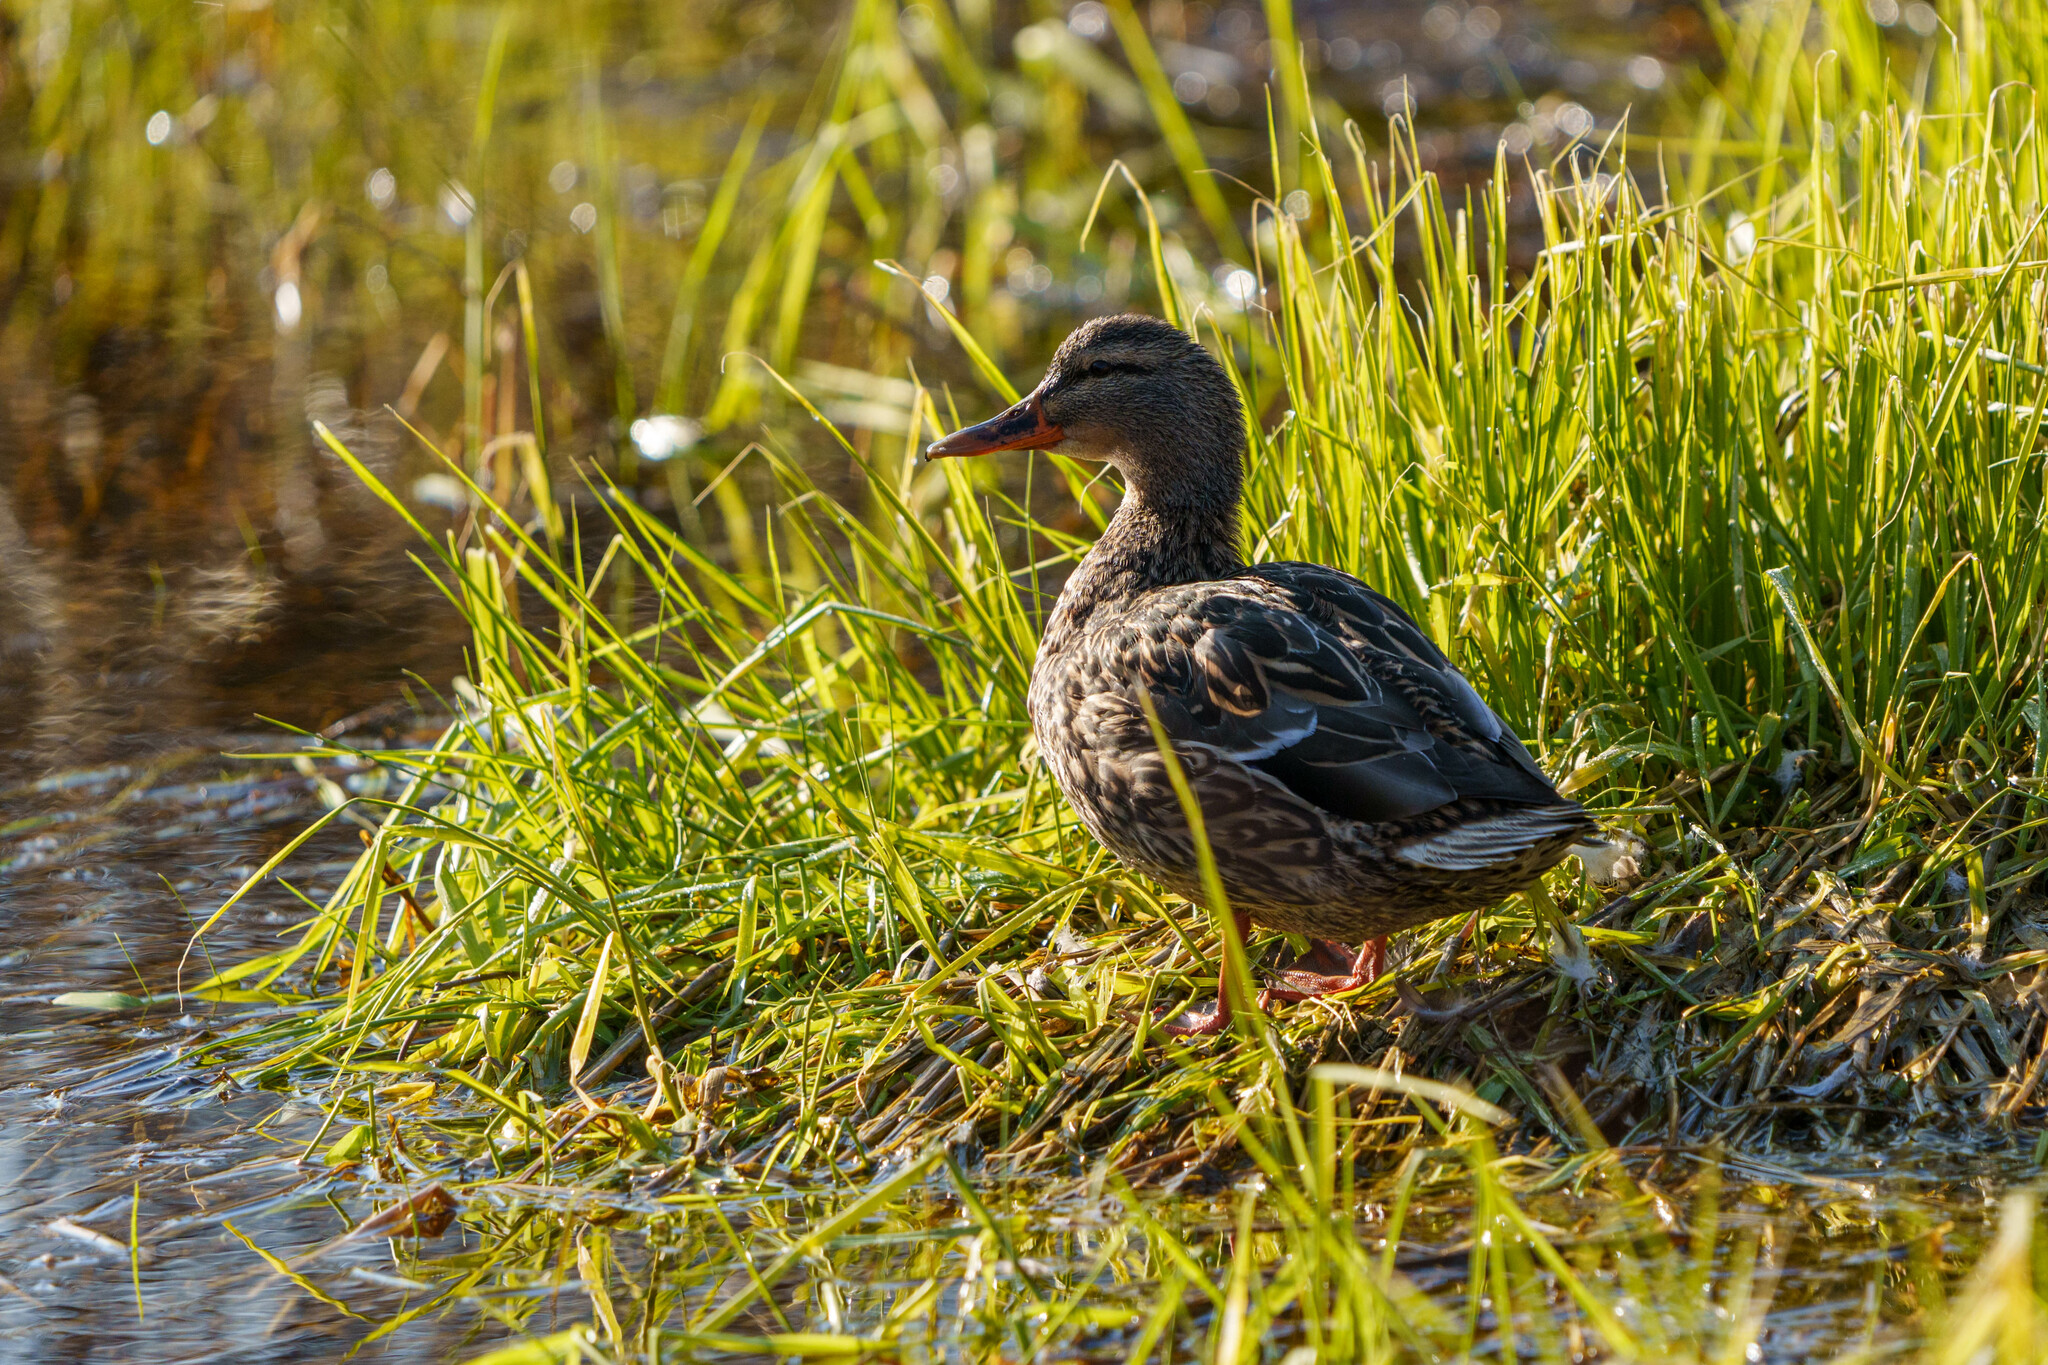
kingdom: Animalia
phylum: Chordata
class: Aves
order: Anseriformes
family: Anatidae
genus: Anas
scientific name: Anas platyrhynchos
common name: Mallard
